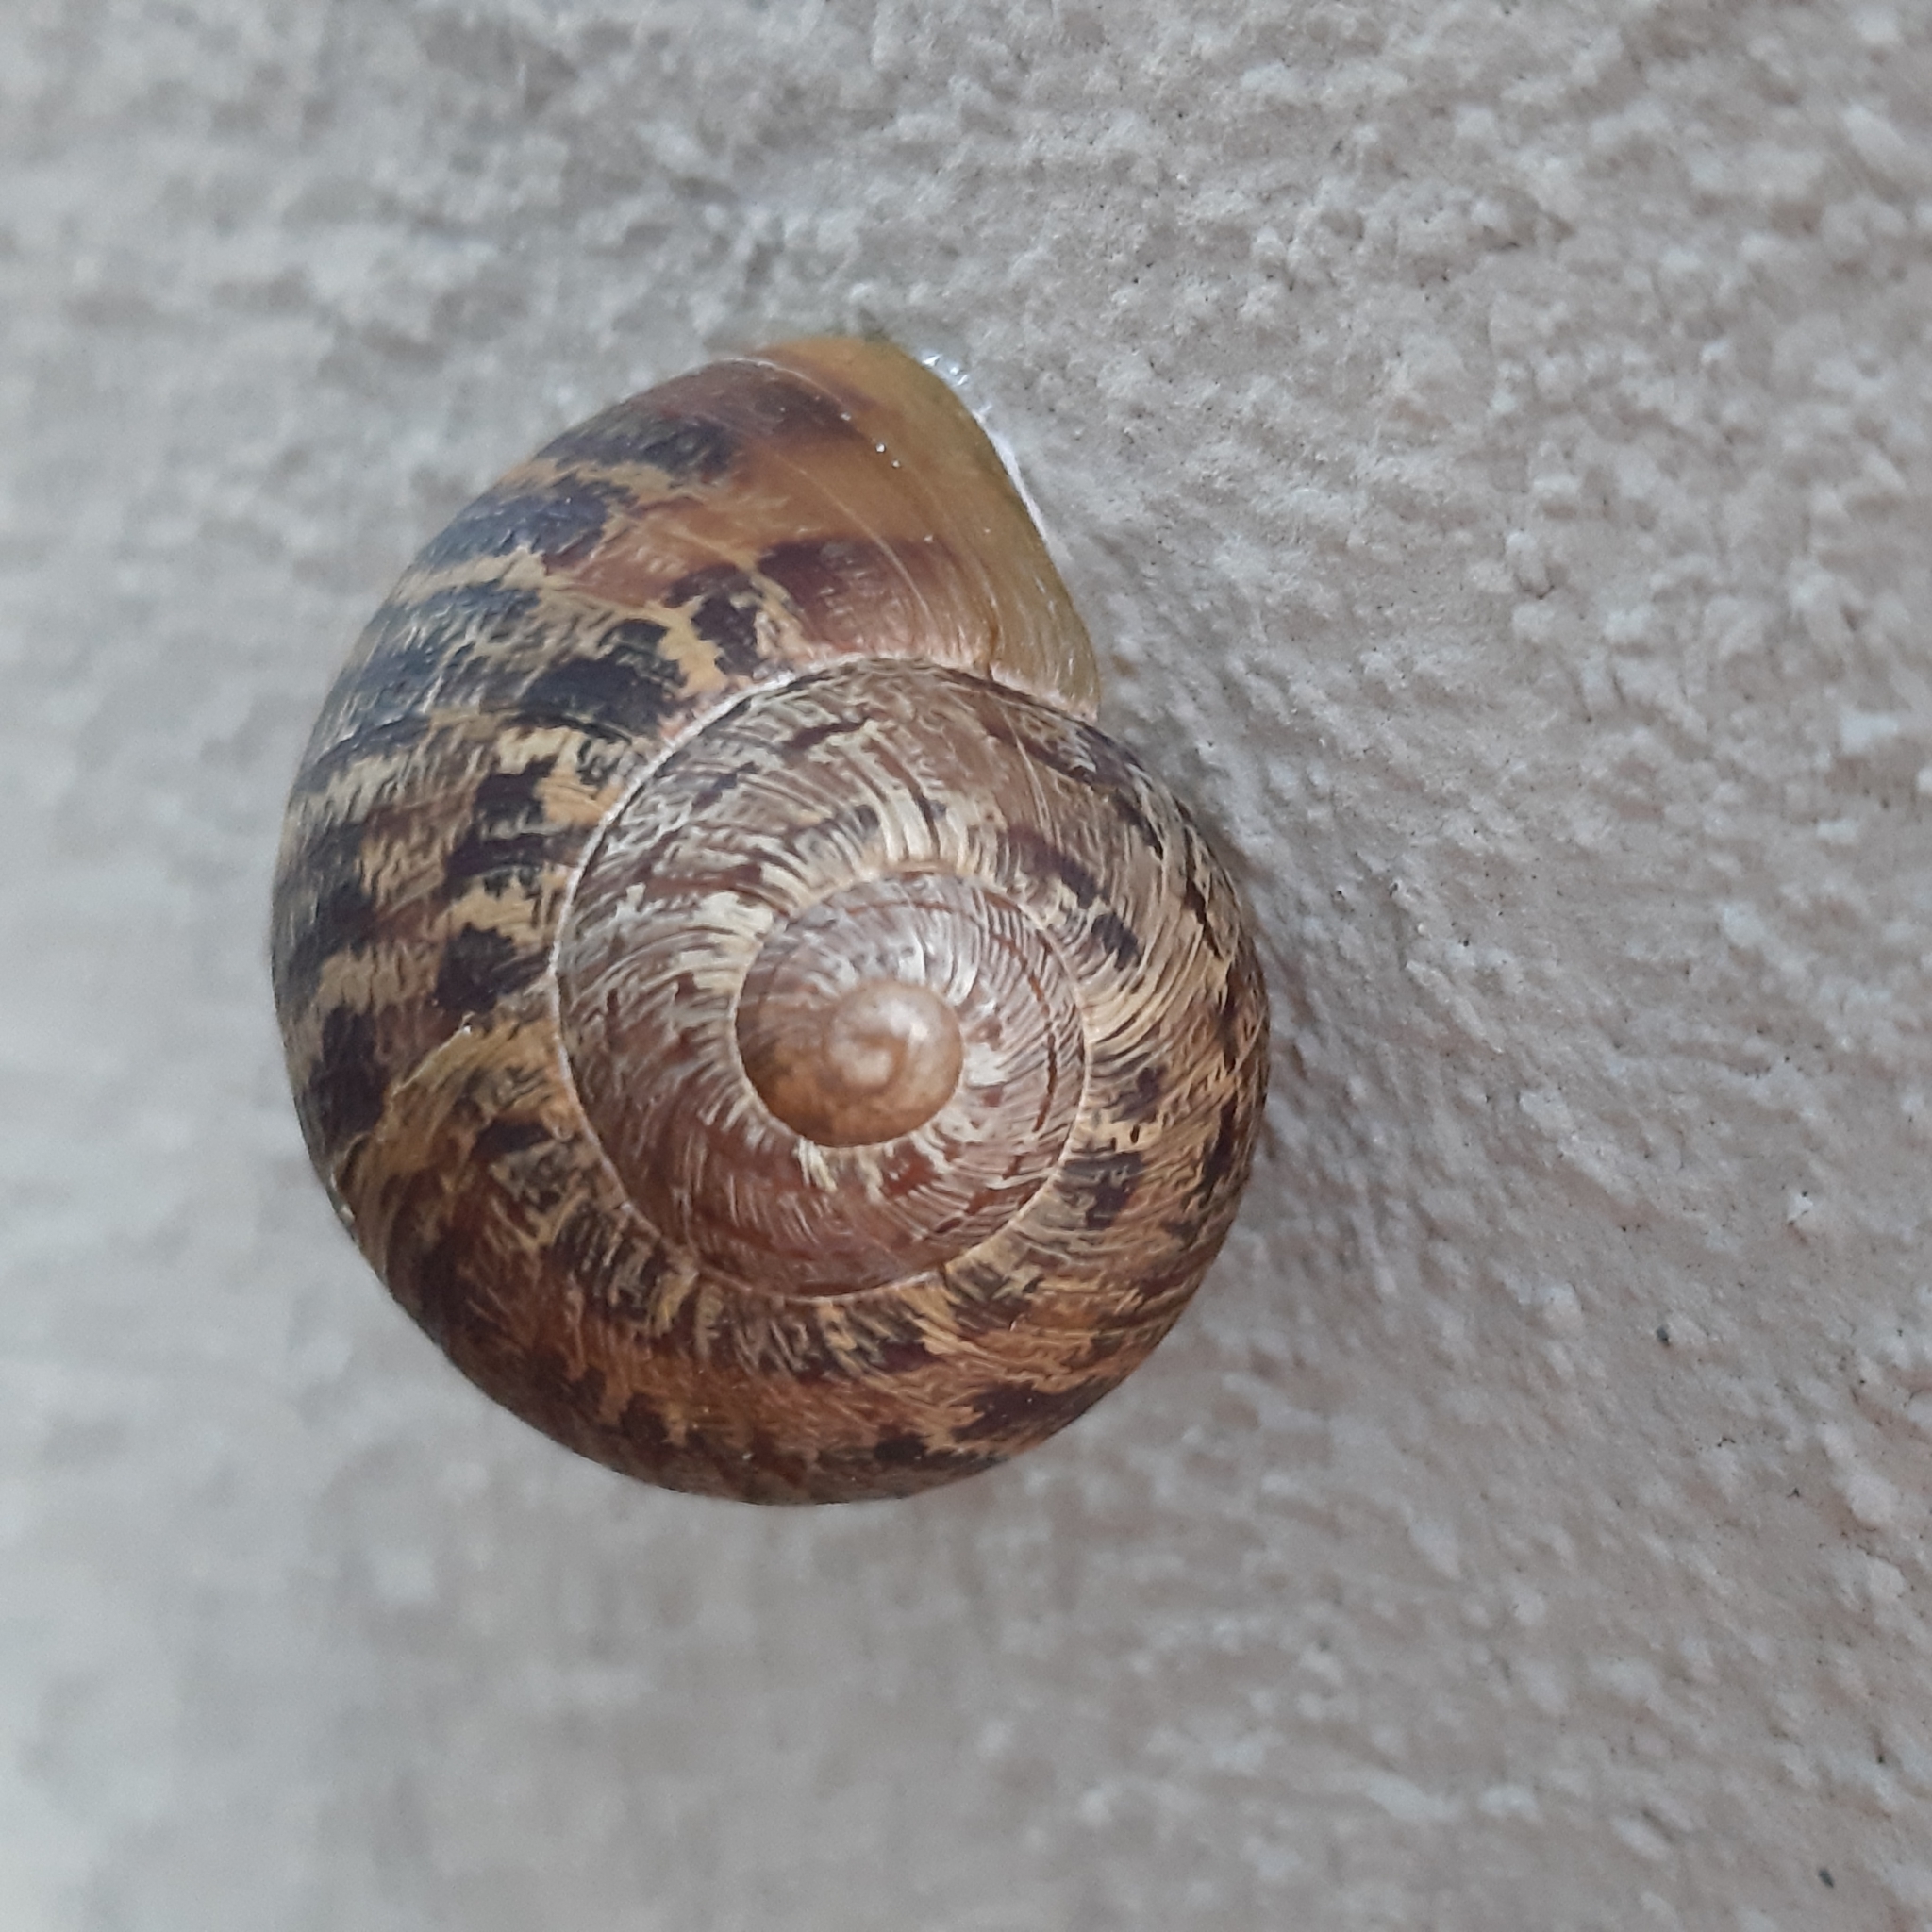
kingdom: Animalia
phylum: Mollusca
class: Gastropoda
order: Stylommatophora
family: Helicidae
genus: Cornu
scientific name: Cornu aspersum
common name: Brown garden snail
